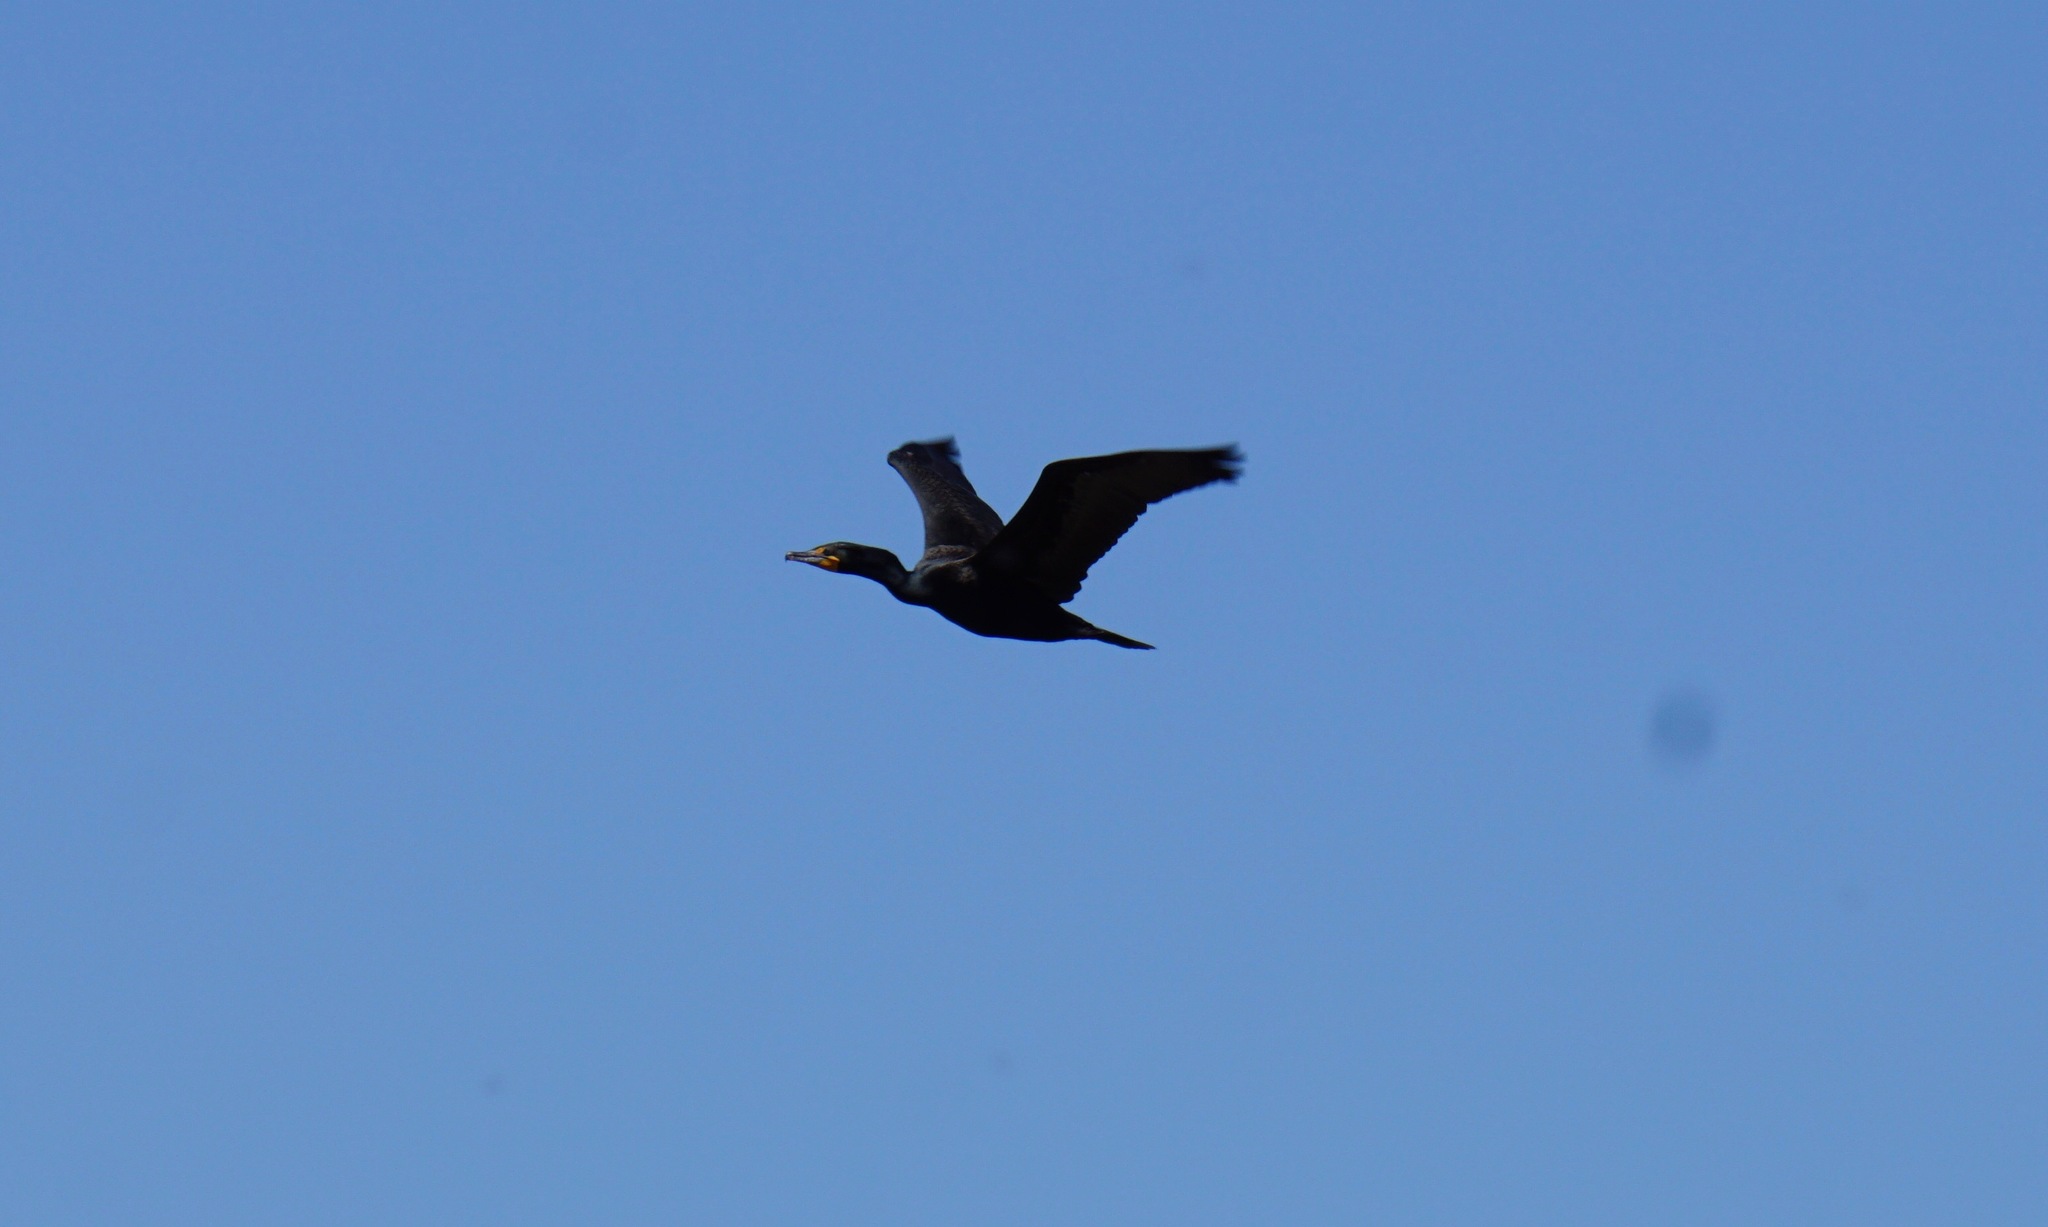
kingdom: Animalia
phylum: Chordata
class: Aves
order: Suliformes
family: Phalacrocoracidae
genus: Phalacrocorax
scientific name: Phalacrocorax auritus
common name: Double-crested cormorant
